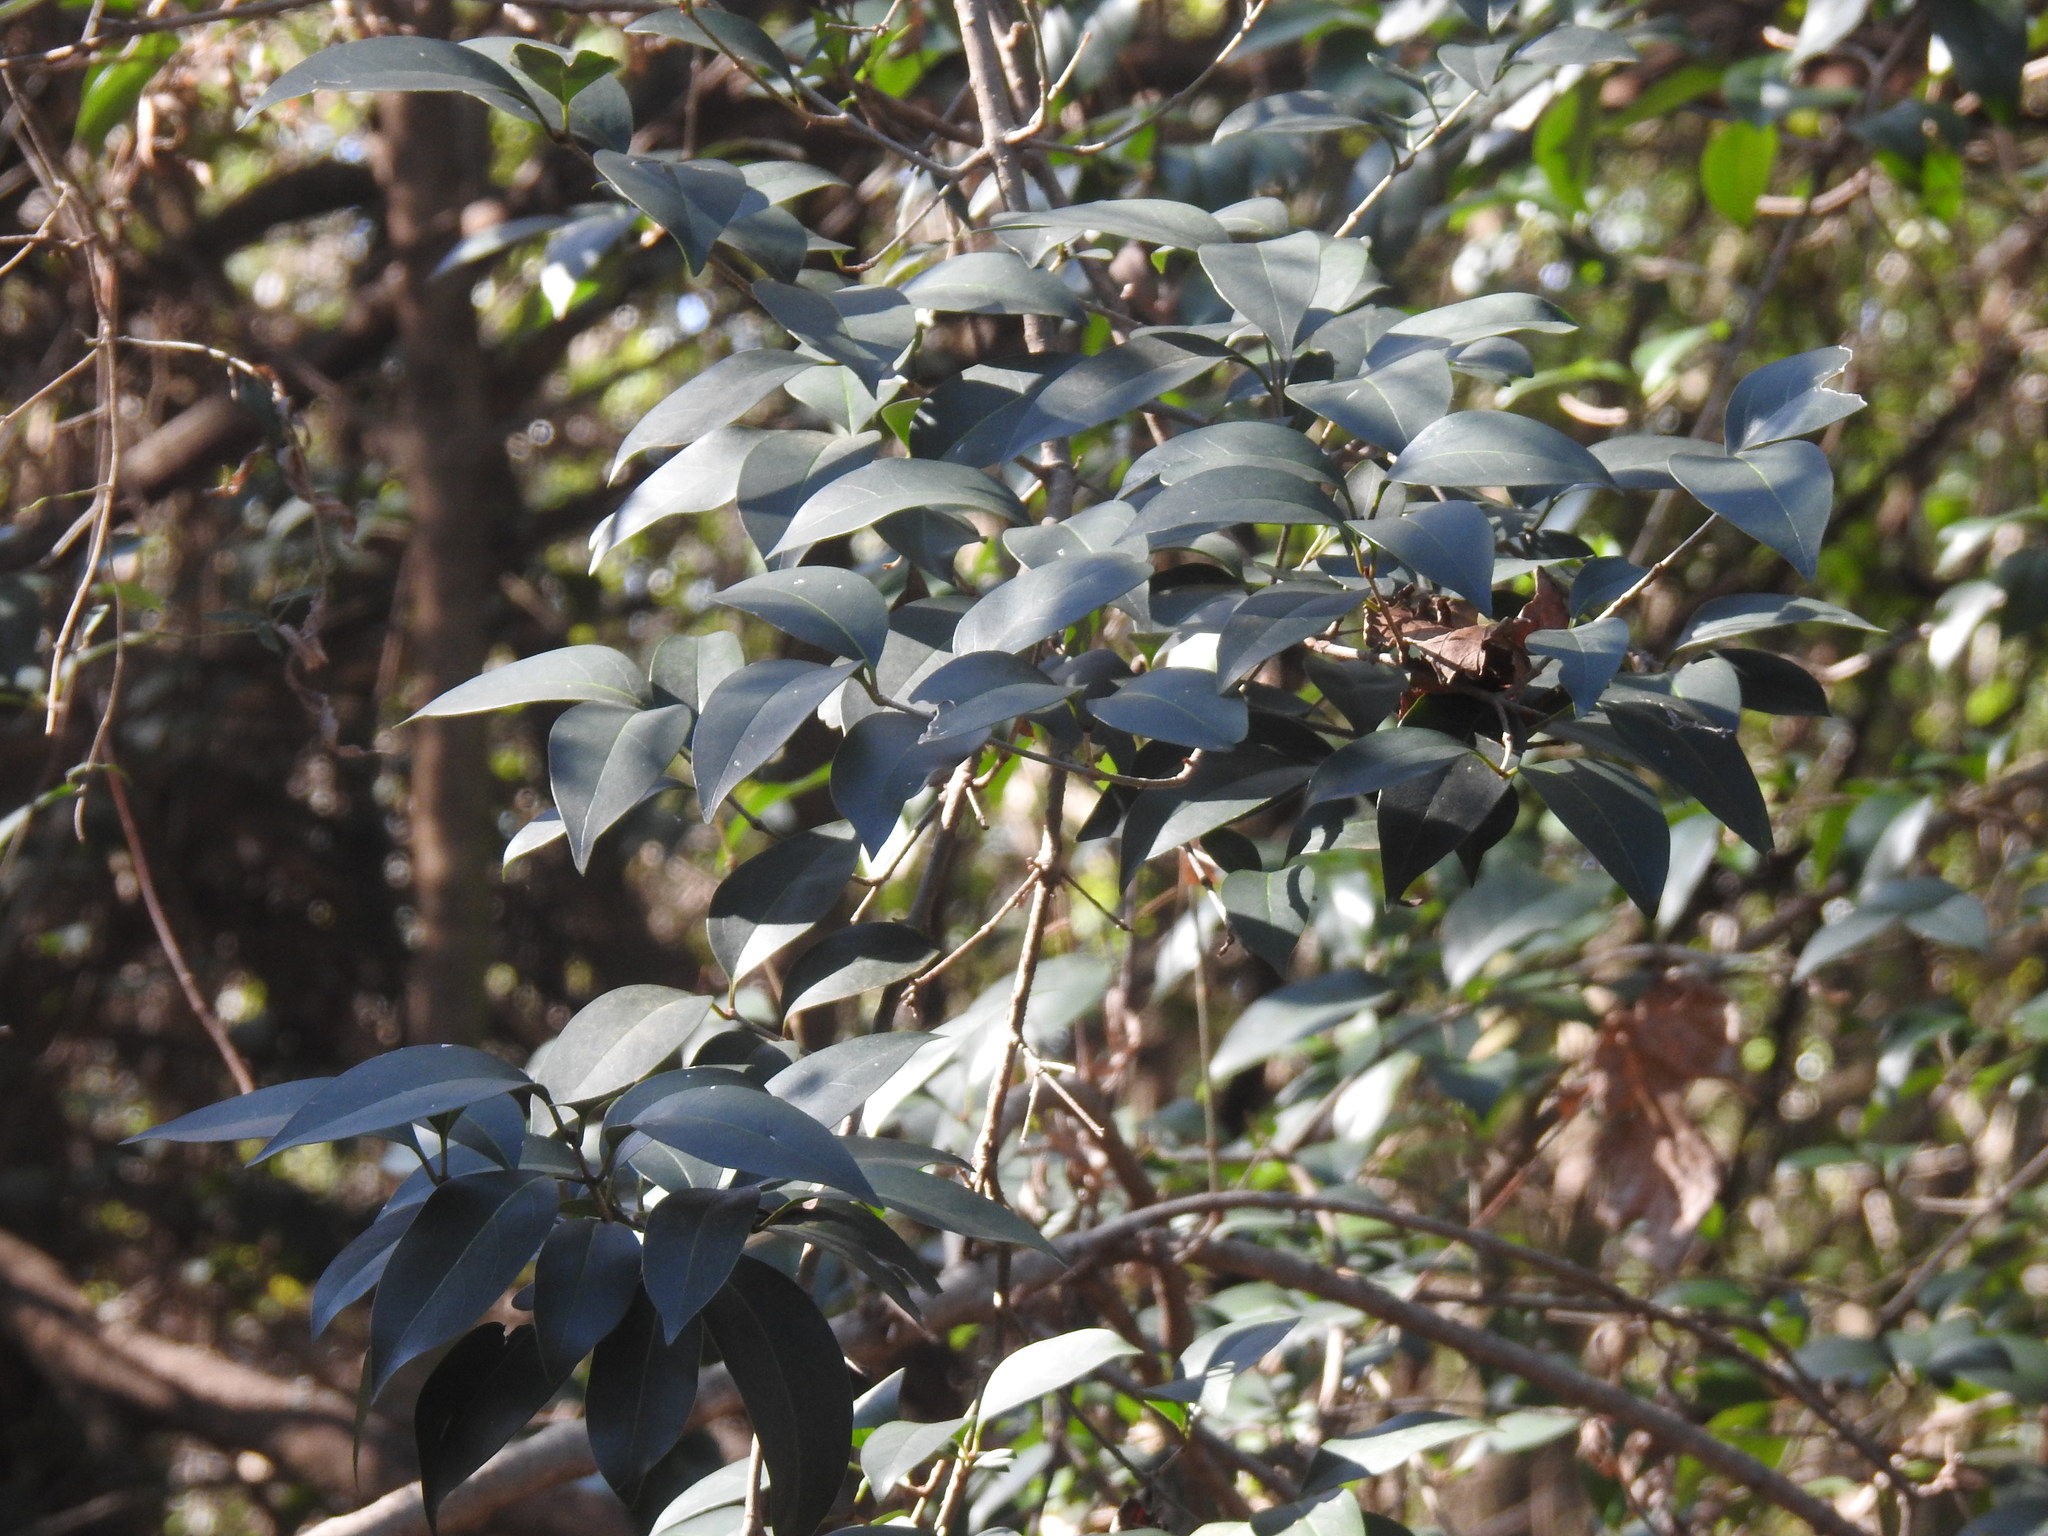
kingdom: Plantae
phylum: Tracheophyta
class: Magnoliopsida
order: Lamiales
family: Oleaceae
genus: Ligustrum
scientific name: Ligustrum lucidum
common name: Glossy privet
